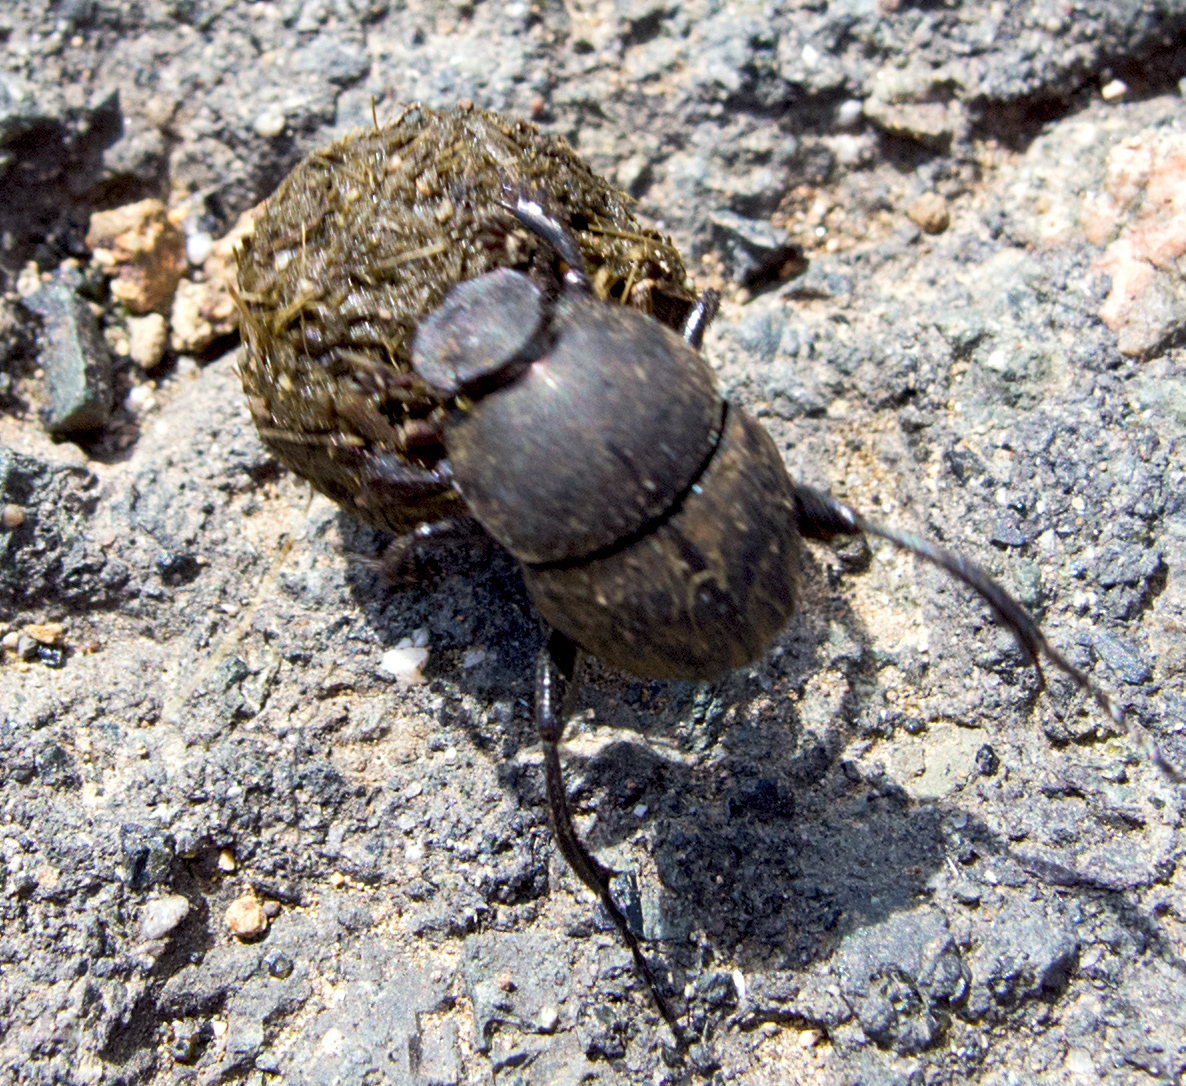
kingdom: Animalia
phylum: Arthropoda
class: Insecta
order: Coleoptera
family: Scarabaeidae
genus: Sisyphus
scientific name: Sisyphus schaefferi
